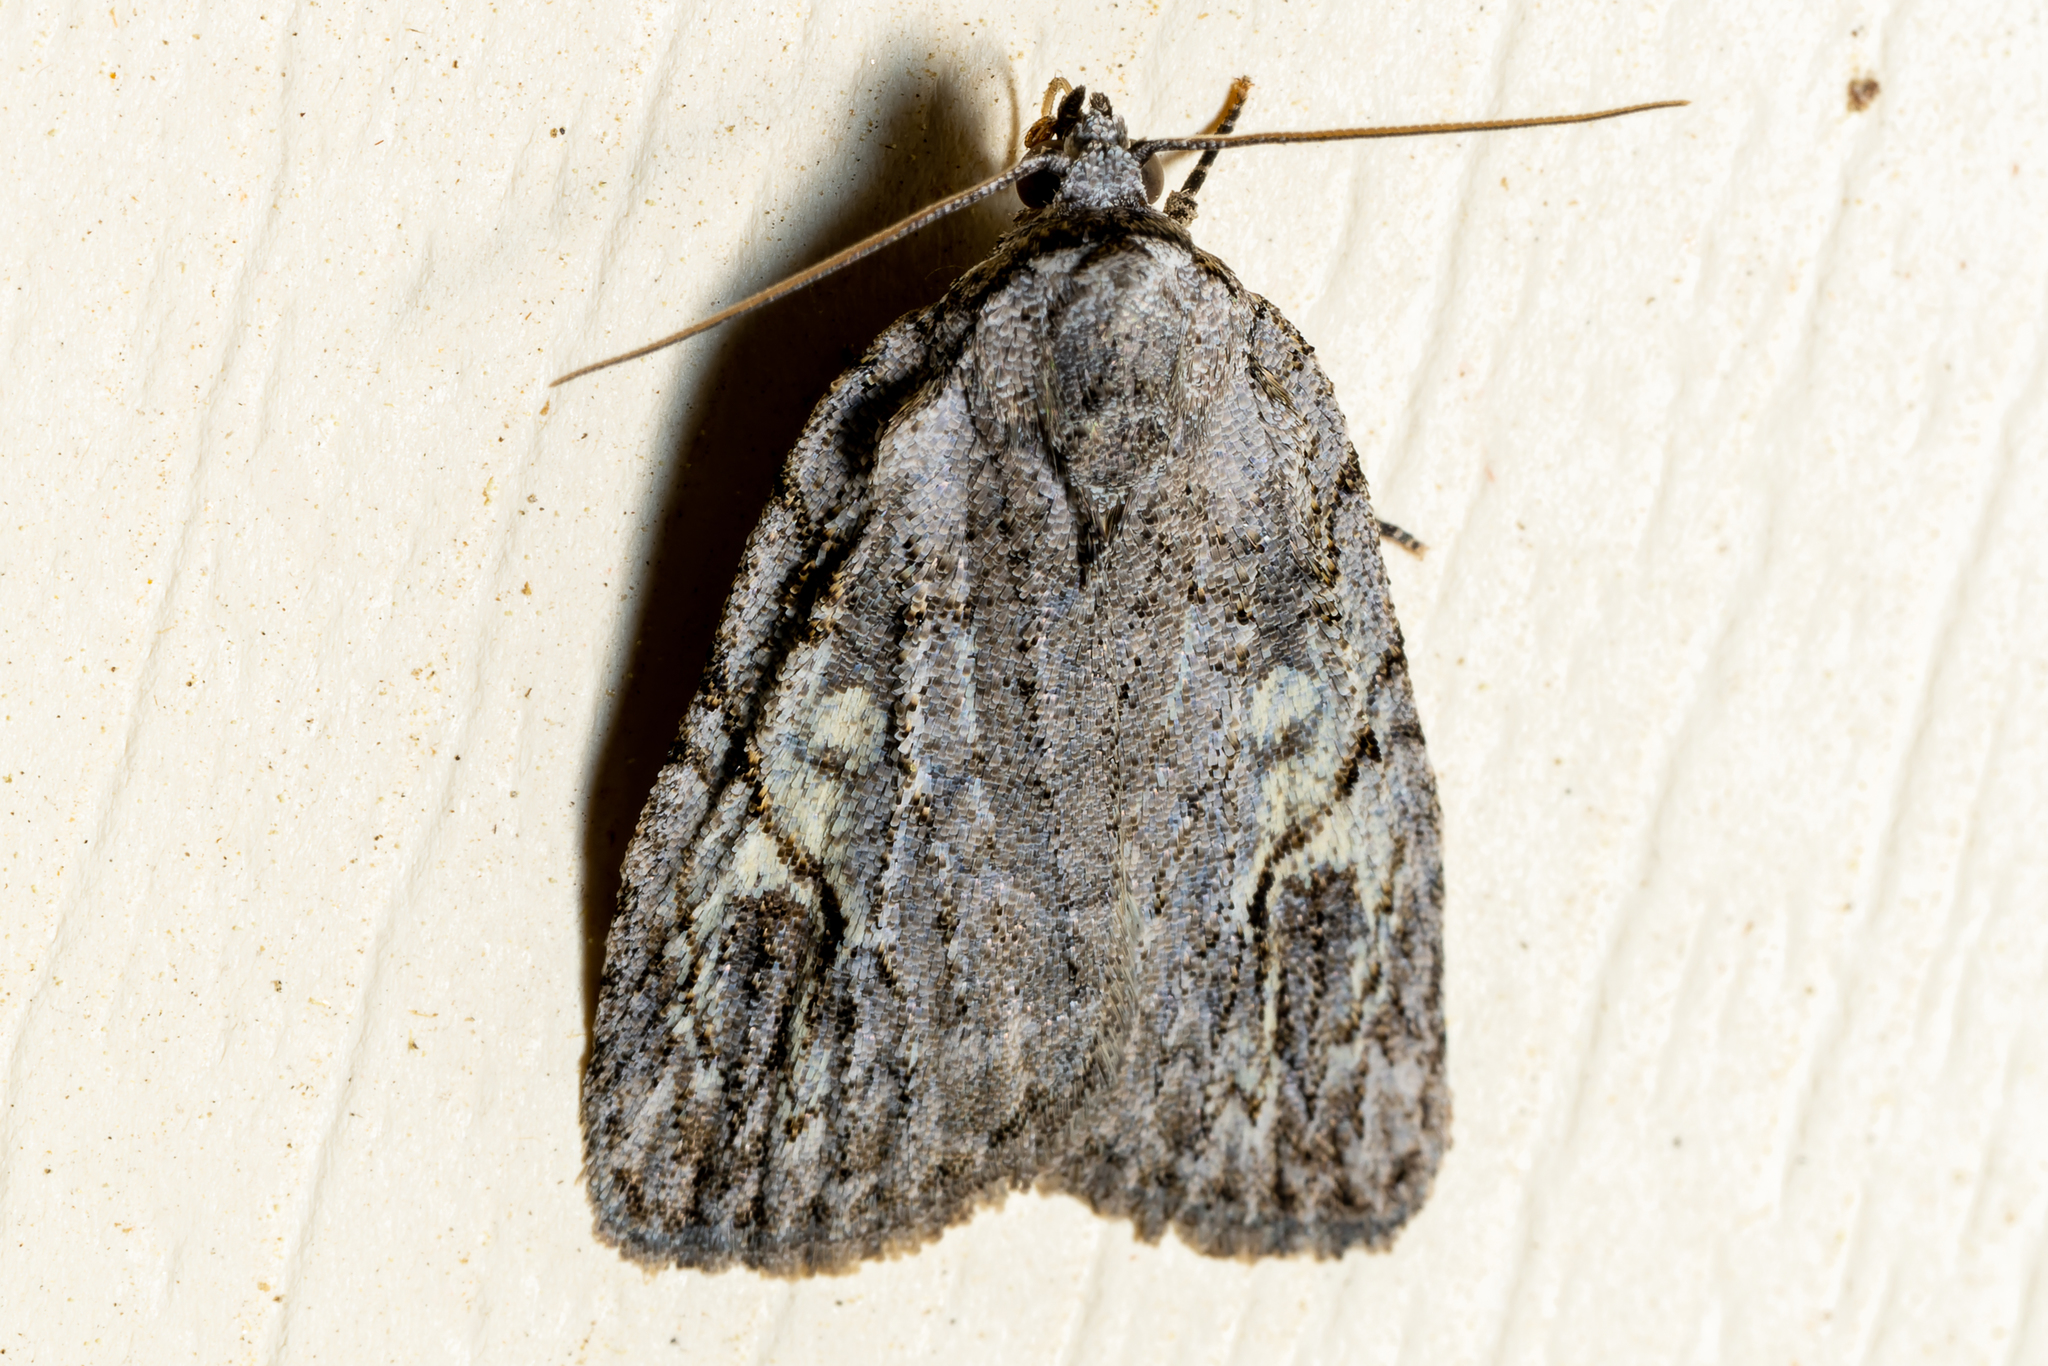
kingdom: Animalia
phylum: Arthropoda
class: Insecta
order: Lepidoptera
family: Noctuidae
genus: Balsa
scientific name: Balsa labecula
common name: White-blotched balsa moth
